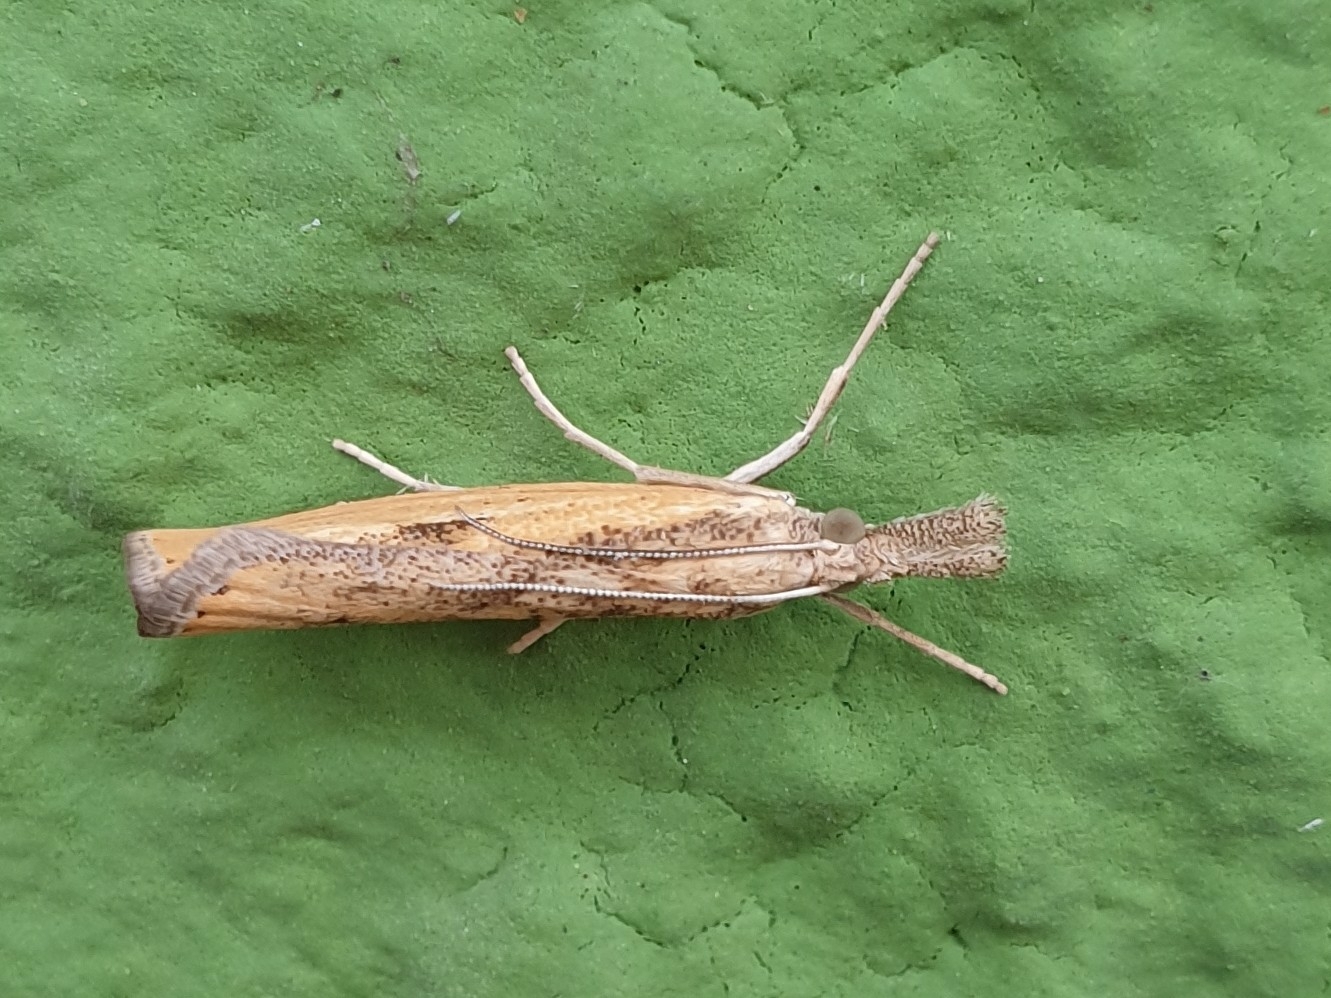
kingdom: Animalia
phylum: Arthropoda
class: Insecta
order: Lepidoptera
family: Crambidae
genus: Agriphila
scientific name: Agriphila inquinatella
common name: Barred grass-veneer
